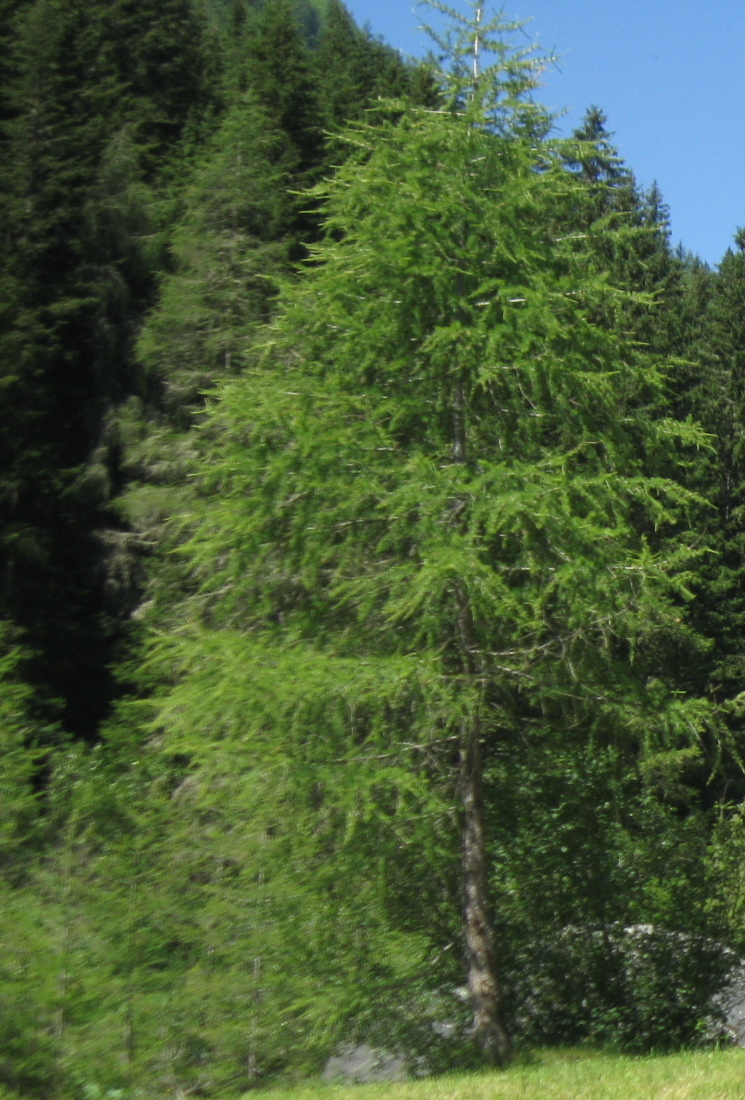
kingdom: Plantae
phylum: Tracheophyta
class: Pinopsida
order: Pinales
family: Pinaceae
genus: Larix
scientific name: Larix decidua
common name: European larch
